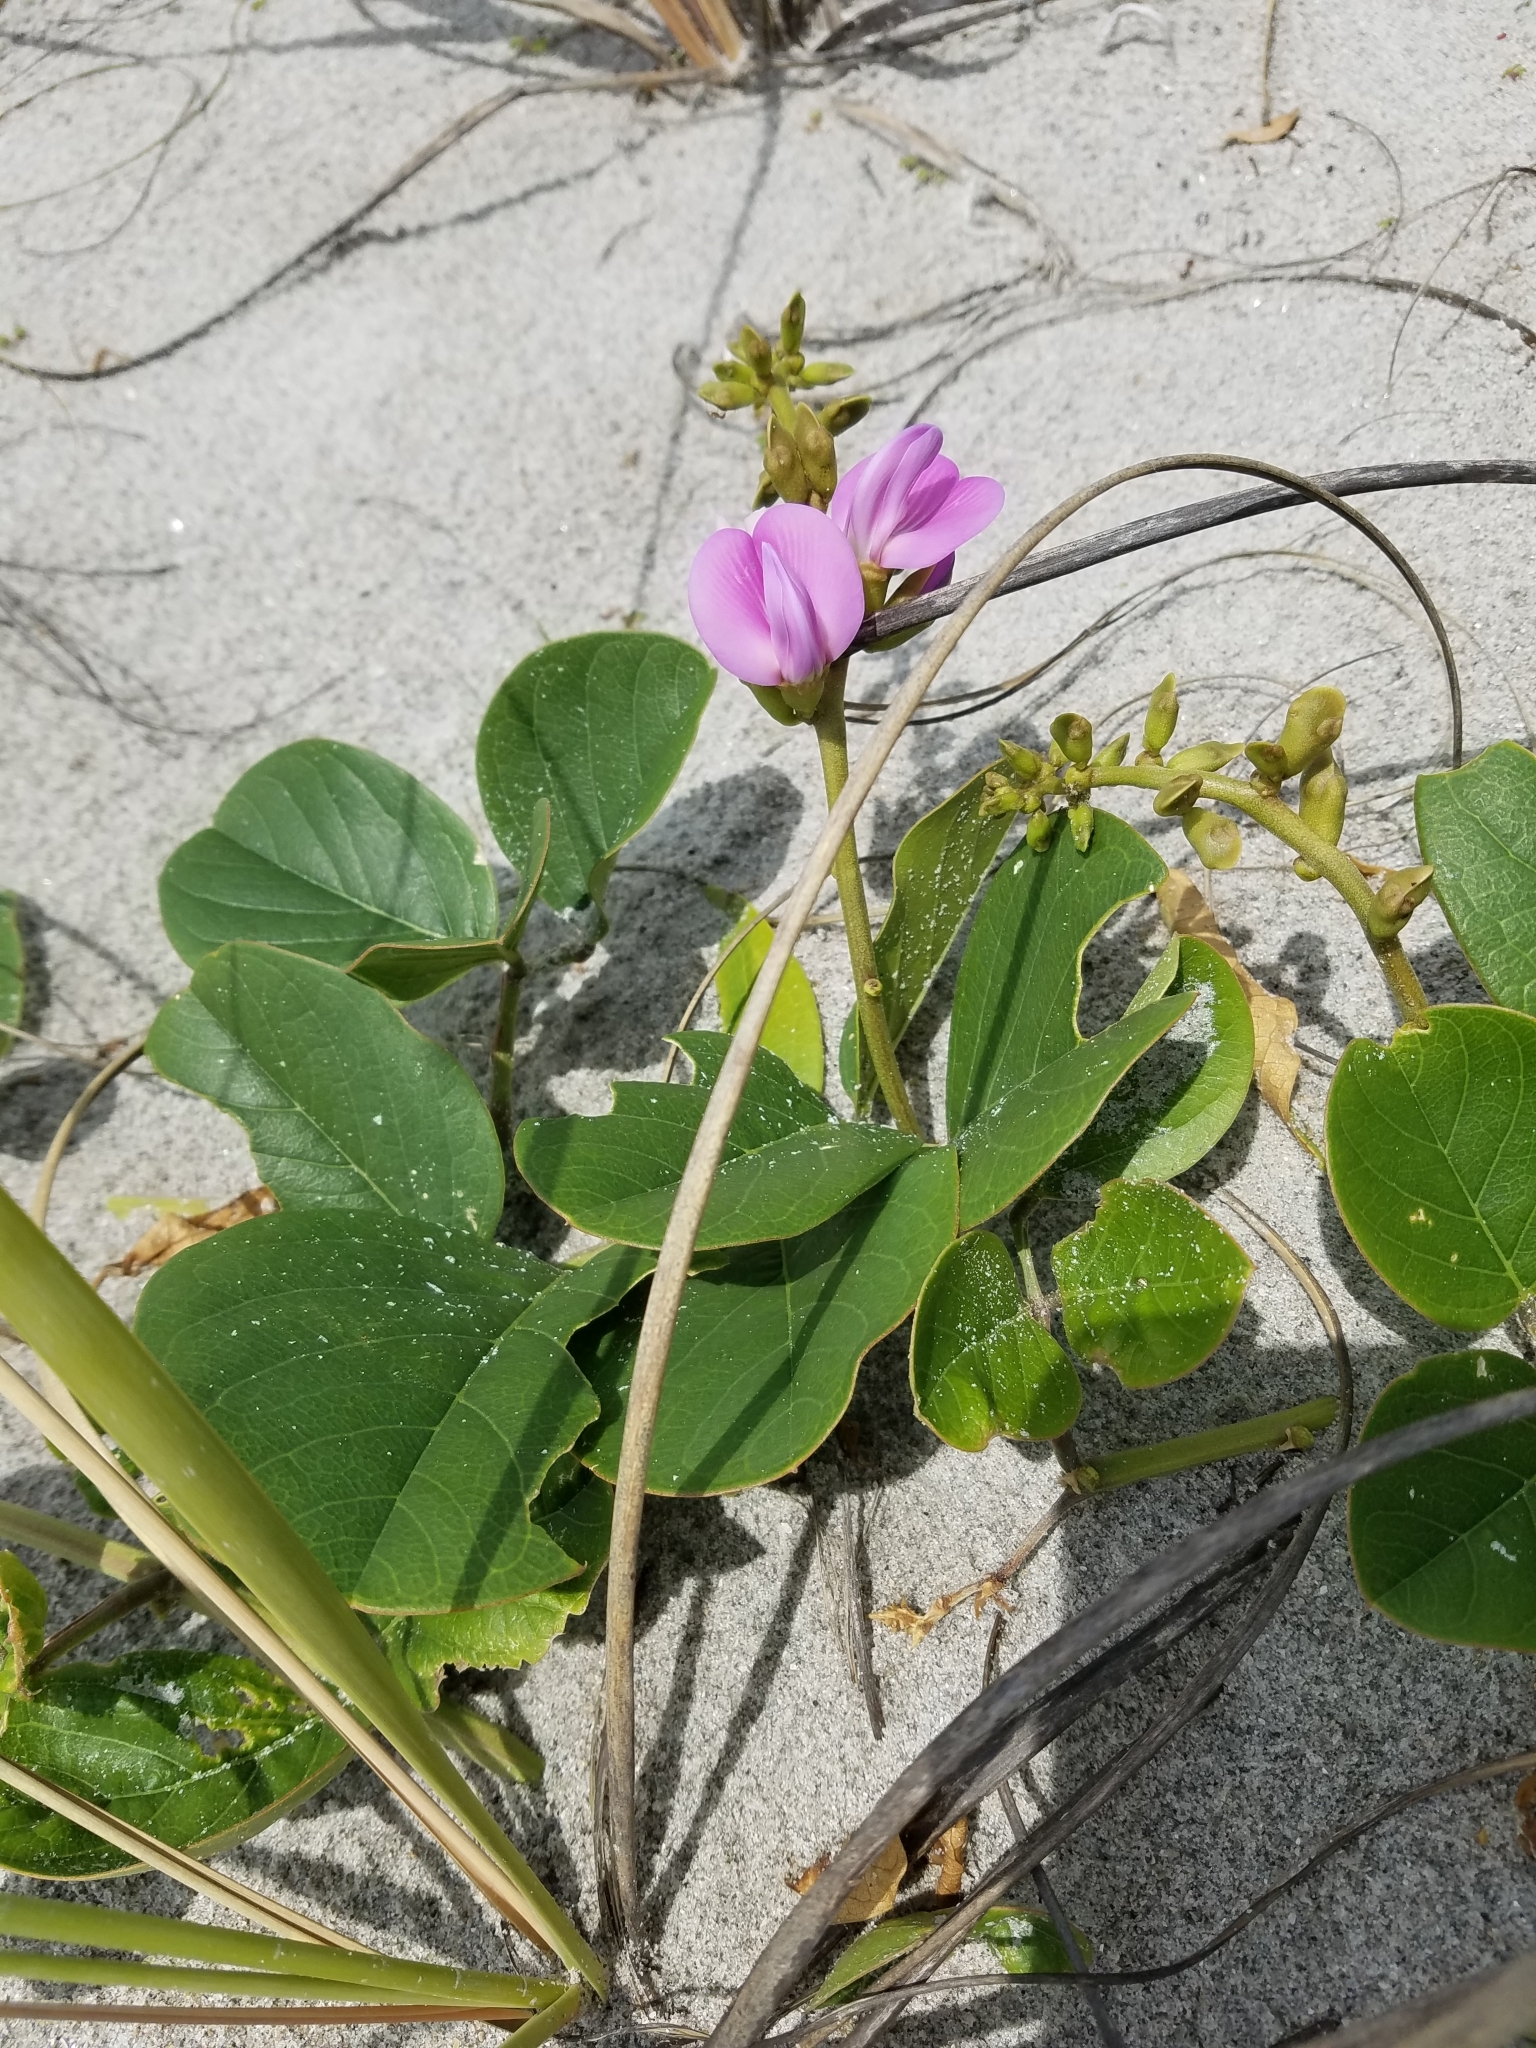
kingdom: Plantae
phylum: Tracheophyta
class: Magnoliopsida
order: Fabales
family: Fabaceae
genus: Canavalia
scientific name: Canavalia rosea
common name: Beach-bean
